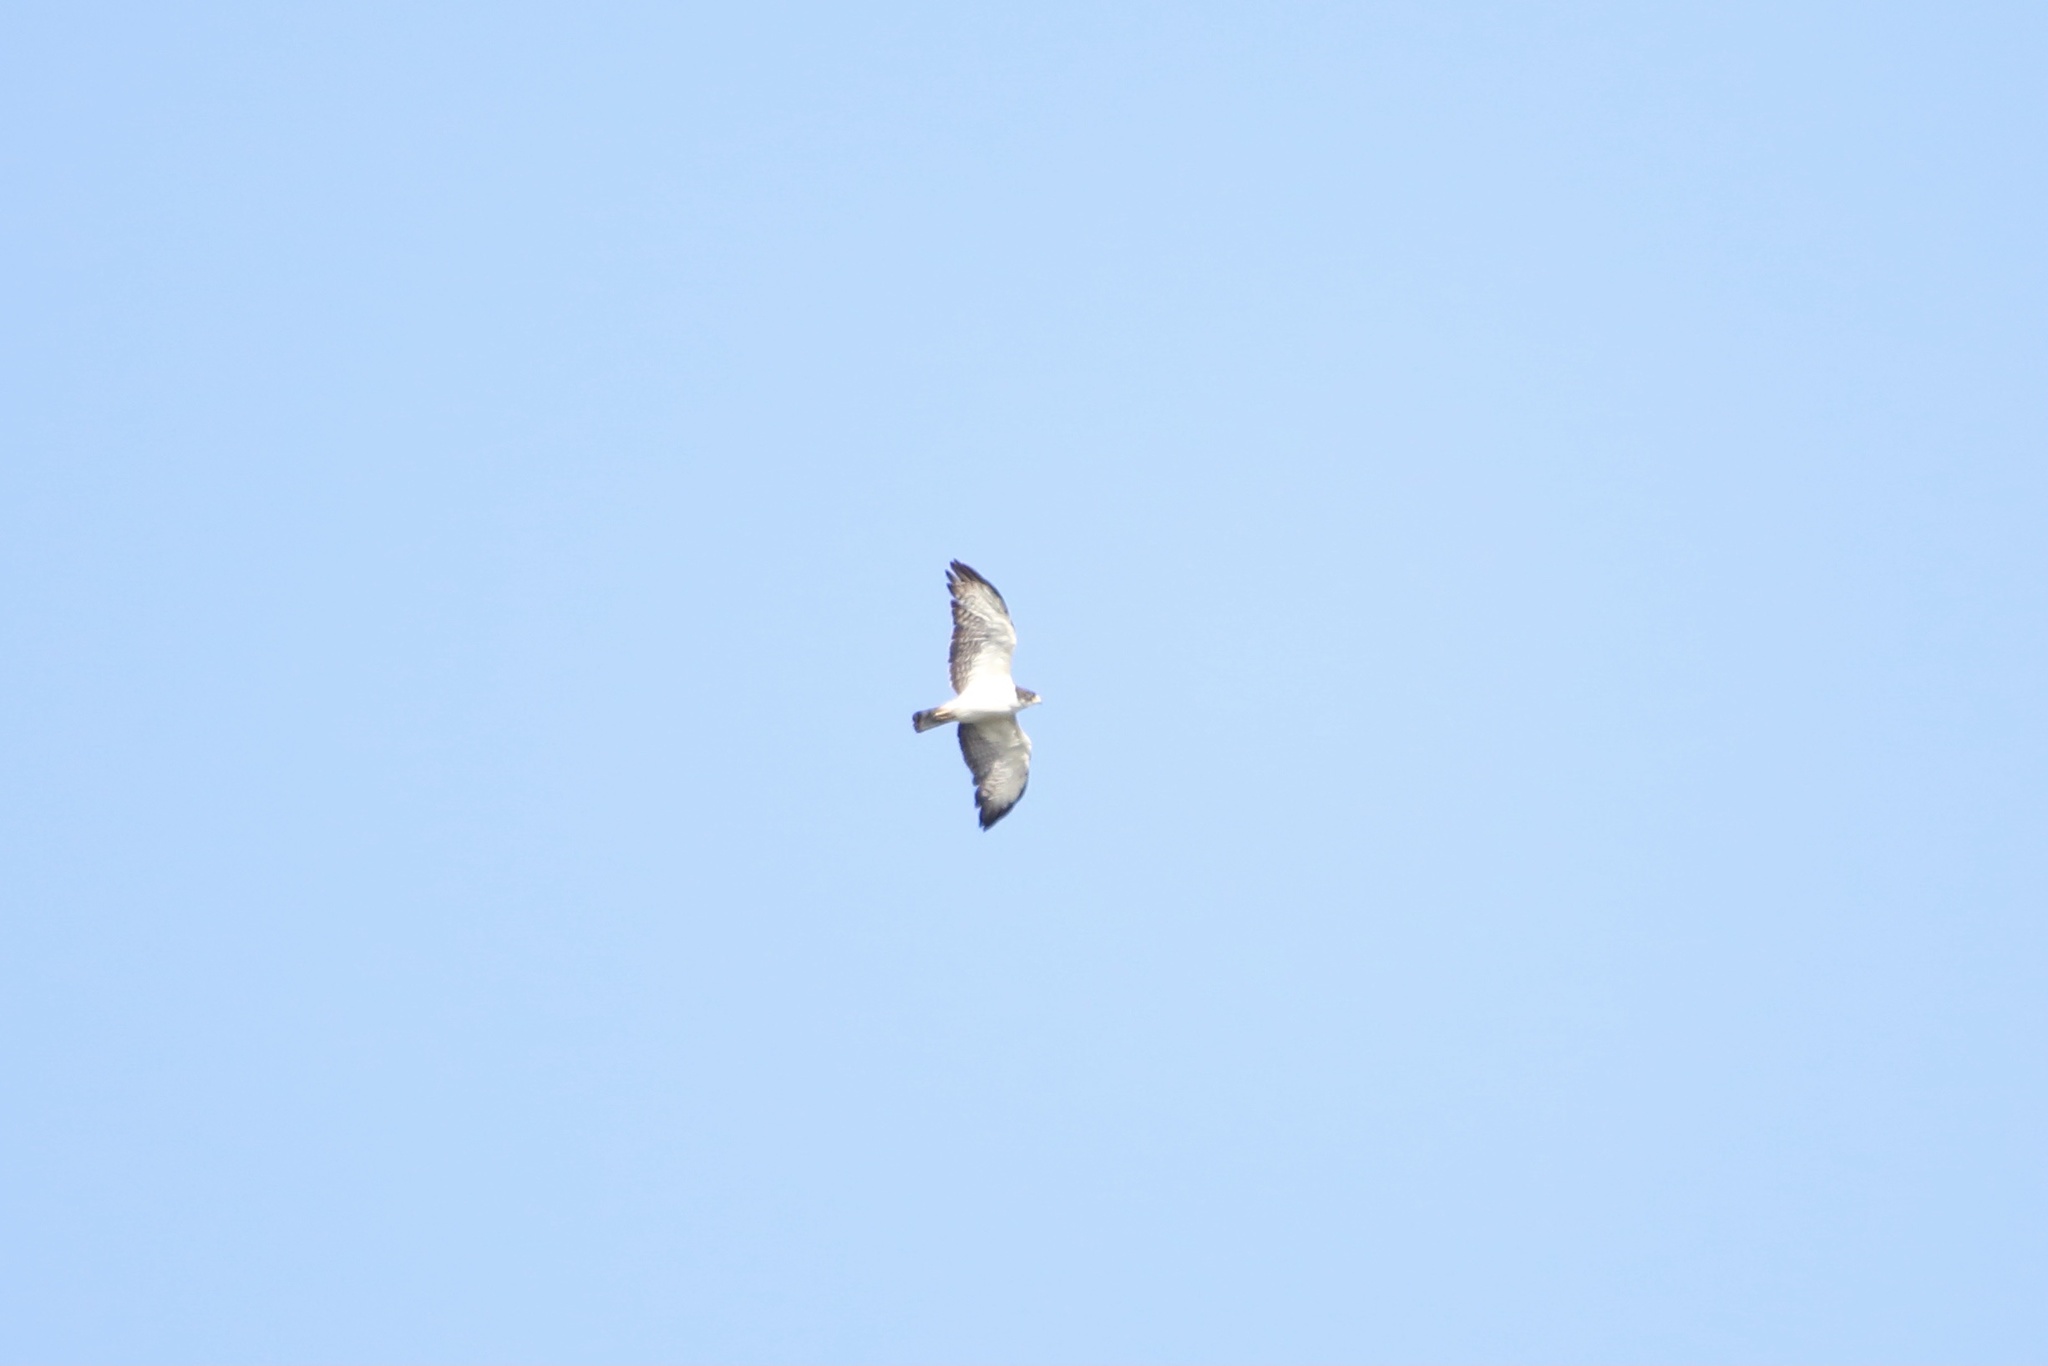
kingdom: Animalia
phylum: Chordata
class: Aves
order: Accipitriformes
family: Accipitridae
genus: Buteo
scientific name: Buteo brachyurus
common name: Short-tailed hawk
